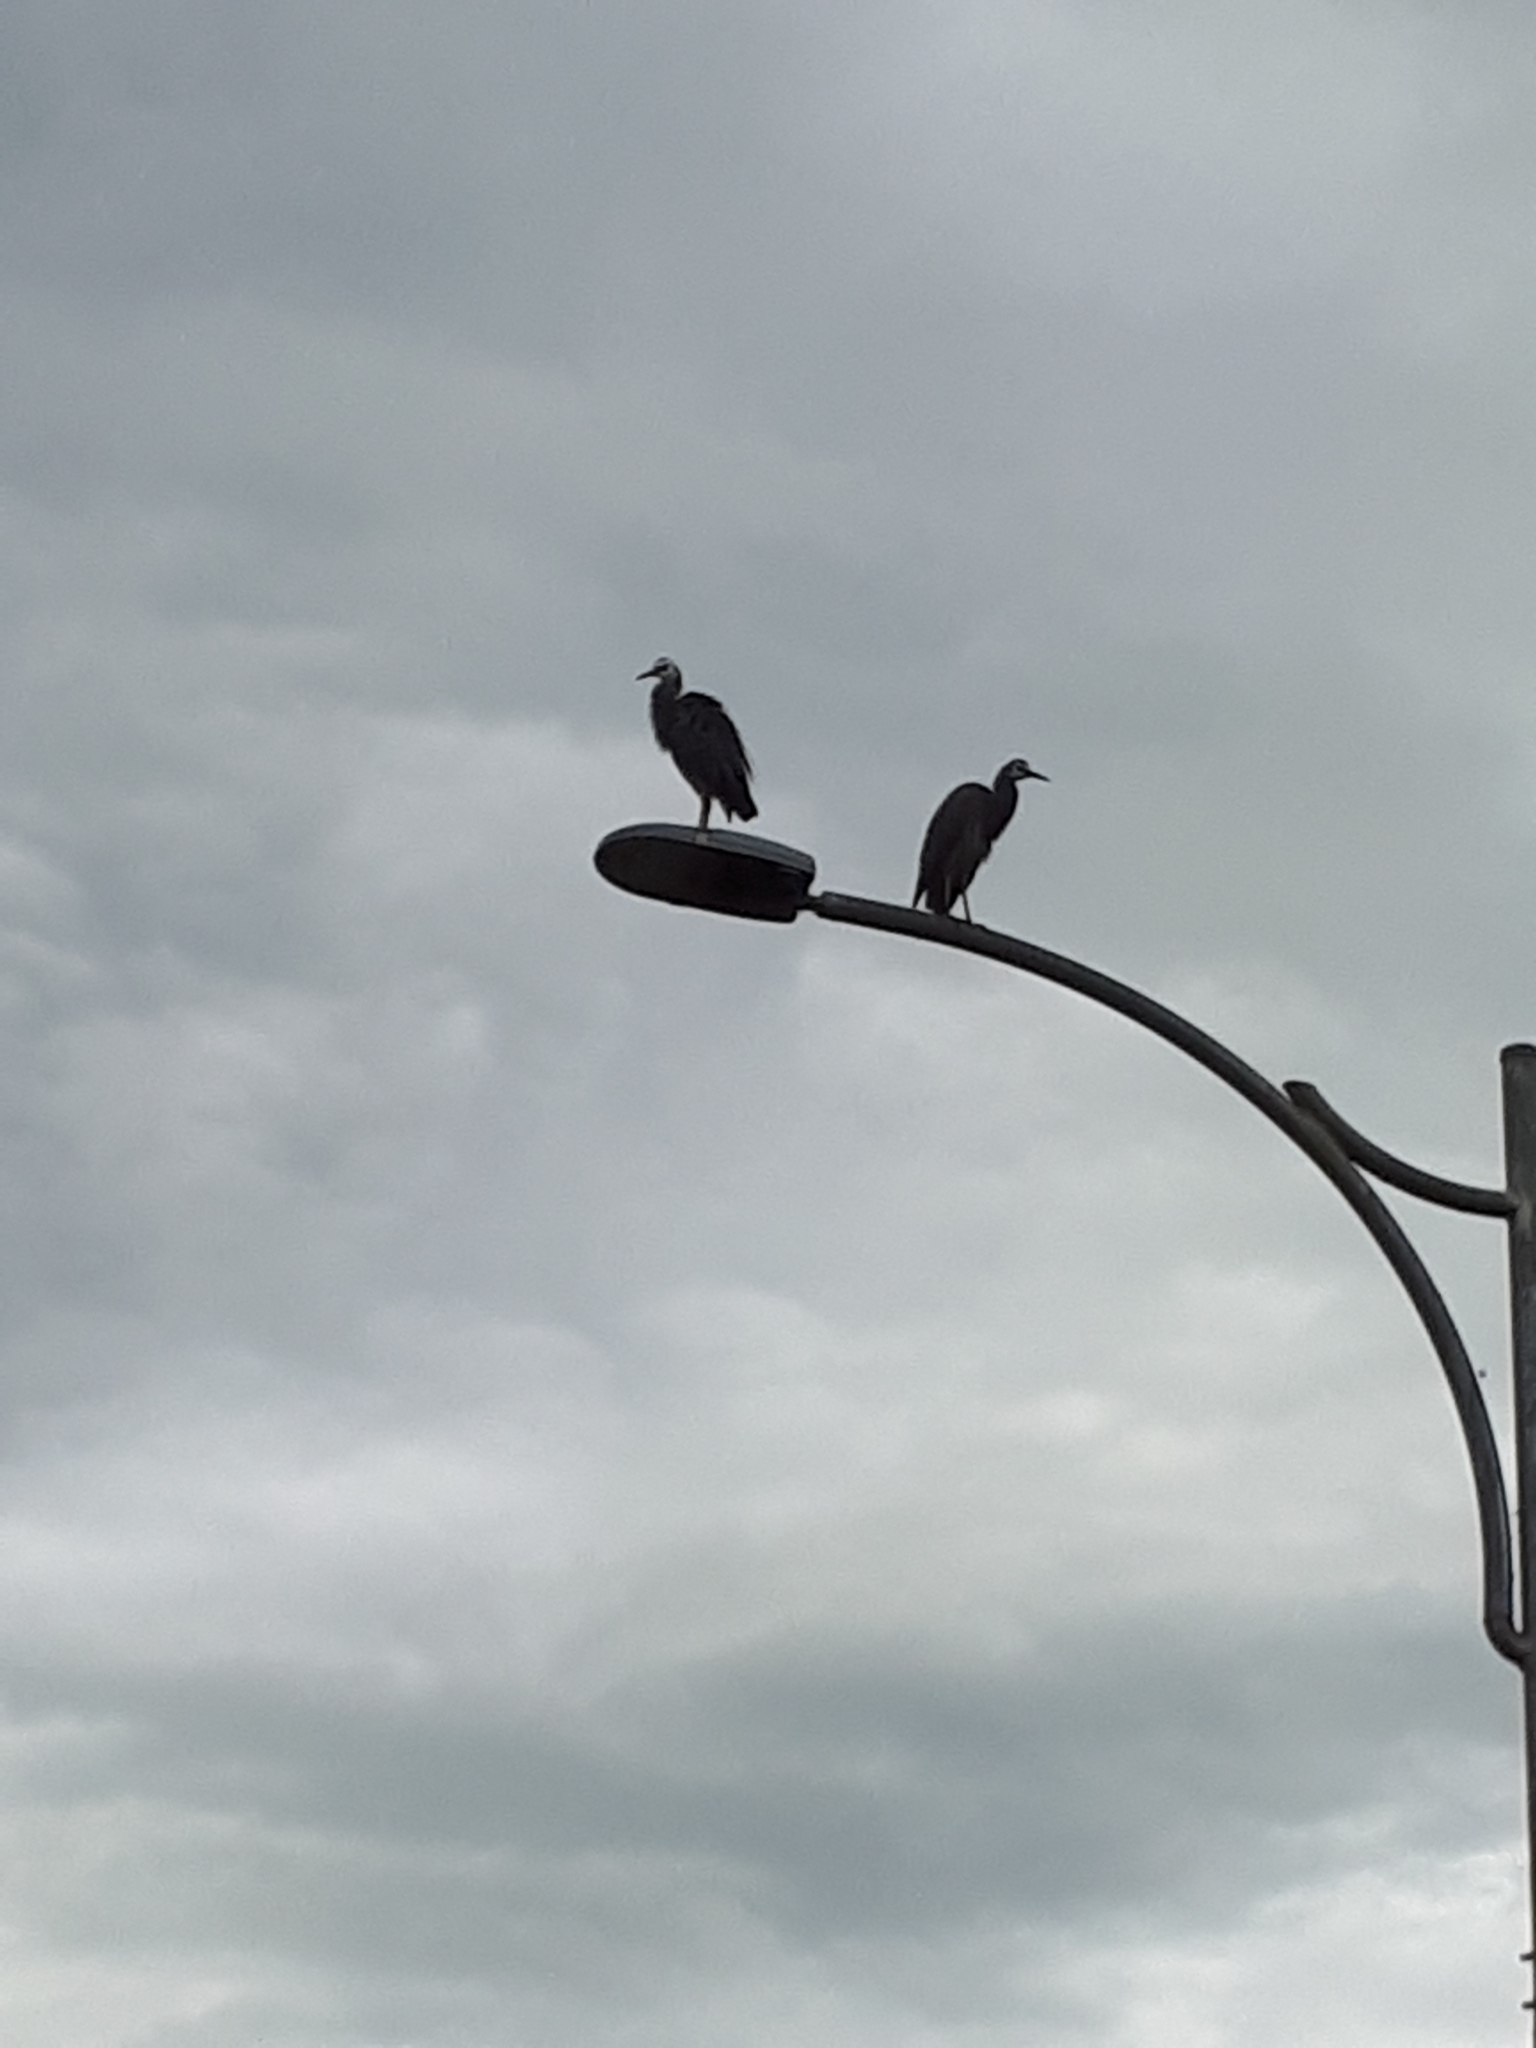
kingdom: Animalia
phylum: Chordata
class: Aves
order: Pelecaniformes
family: Ardeidae
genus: Egretta
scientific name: Egretta novaehollandiae
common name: White-faced heron
